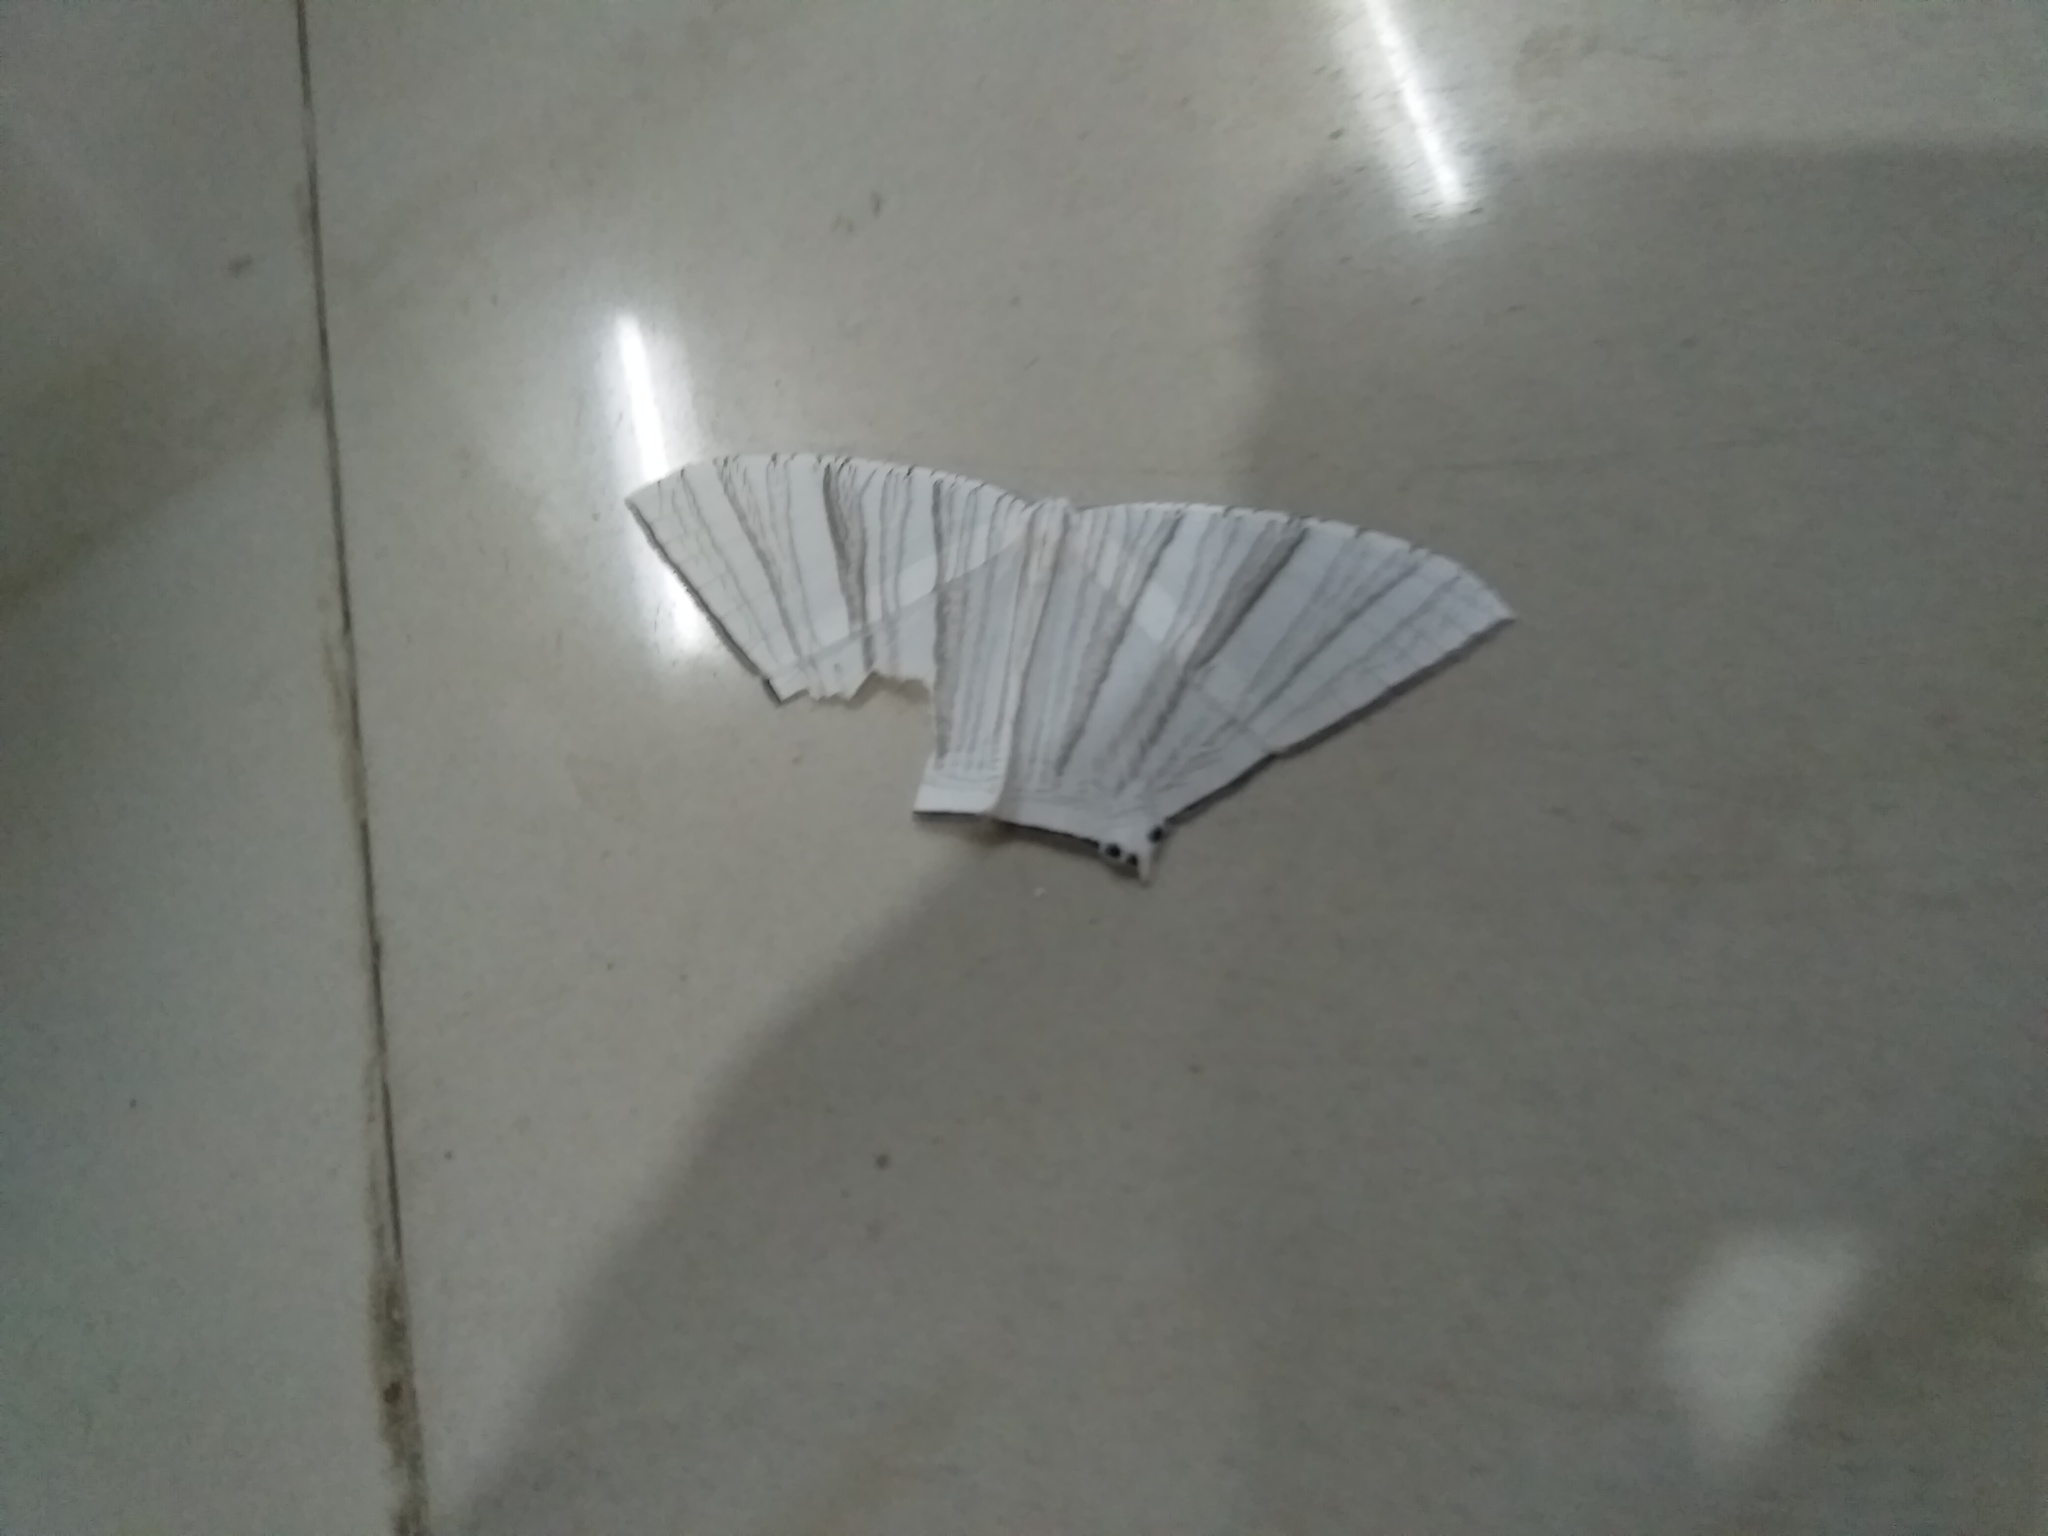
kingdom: Animalia
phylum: Arthropoda
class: Insecta
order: Lepidoptera
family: Uraniidae
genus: Strophidia
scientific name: Strophidia caudata
